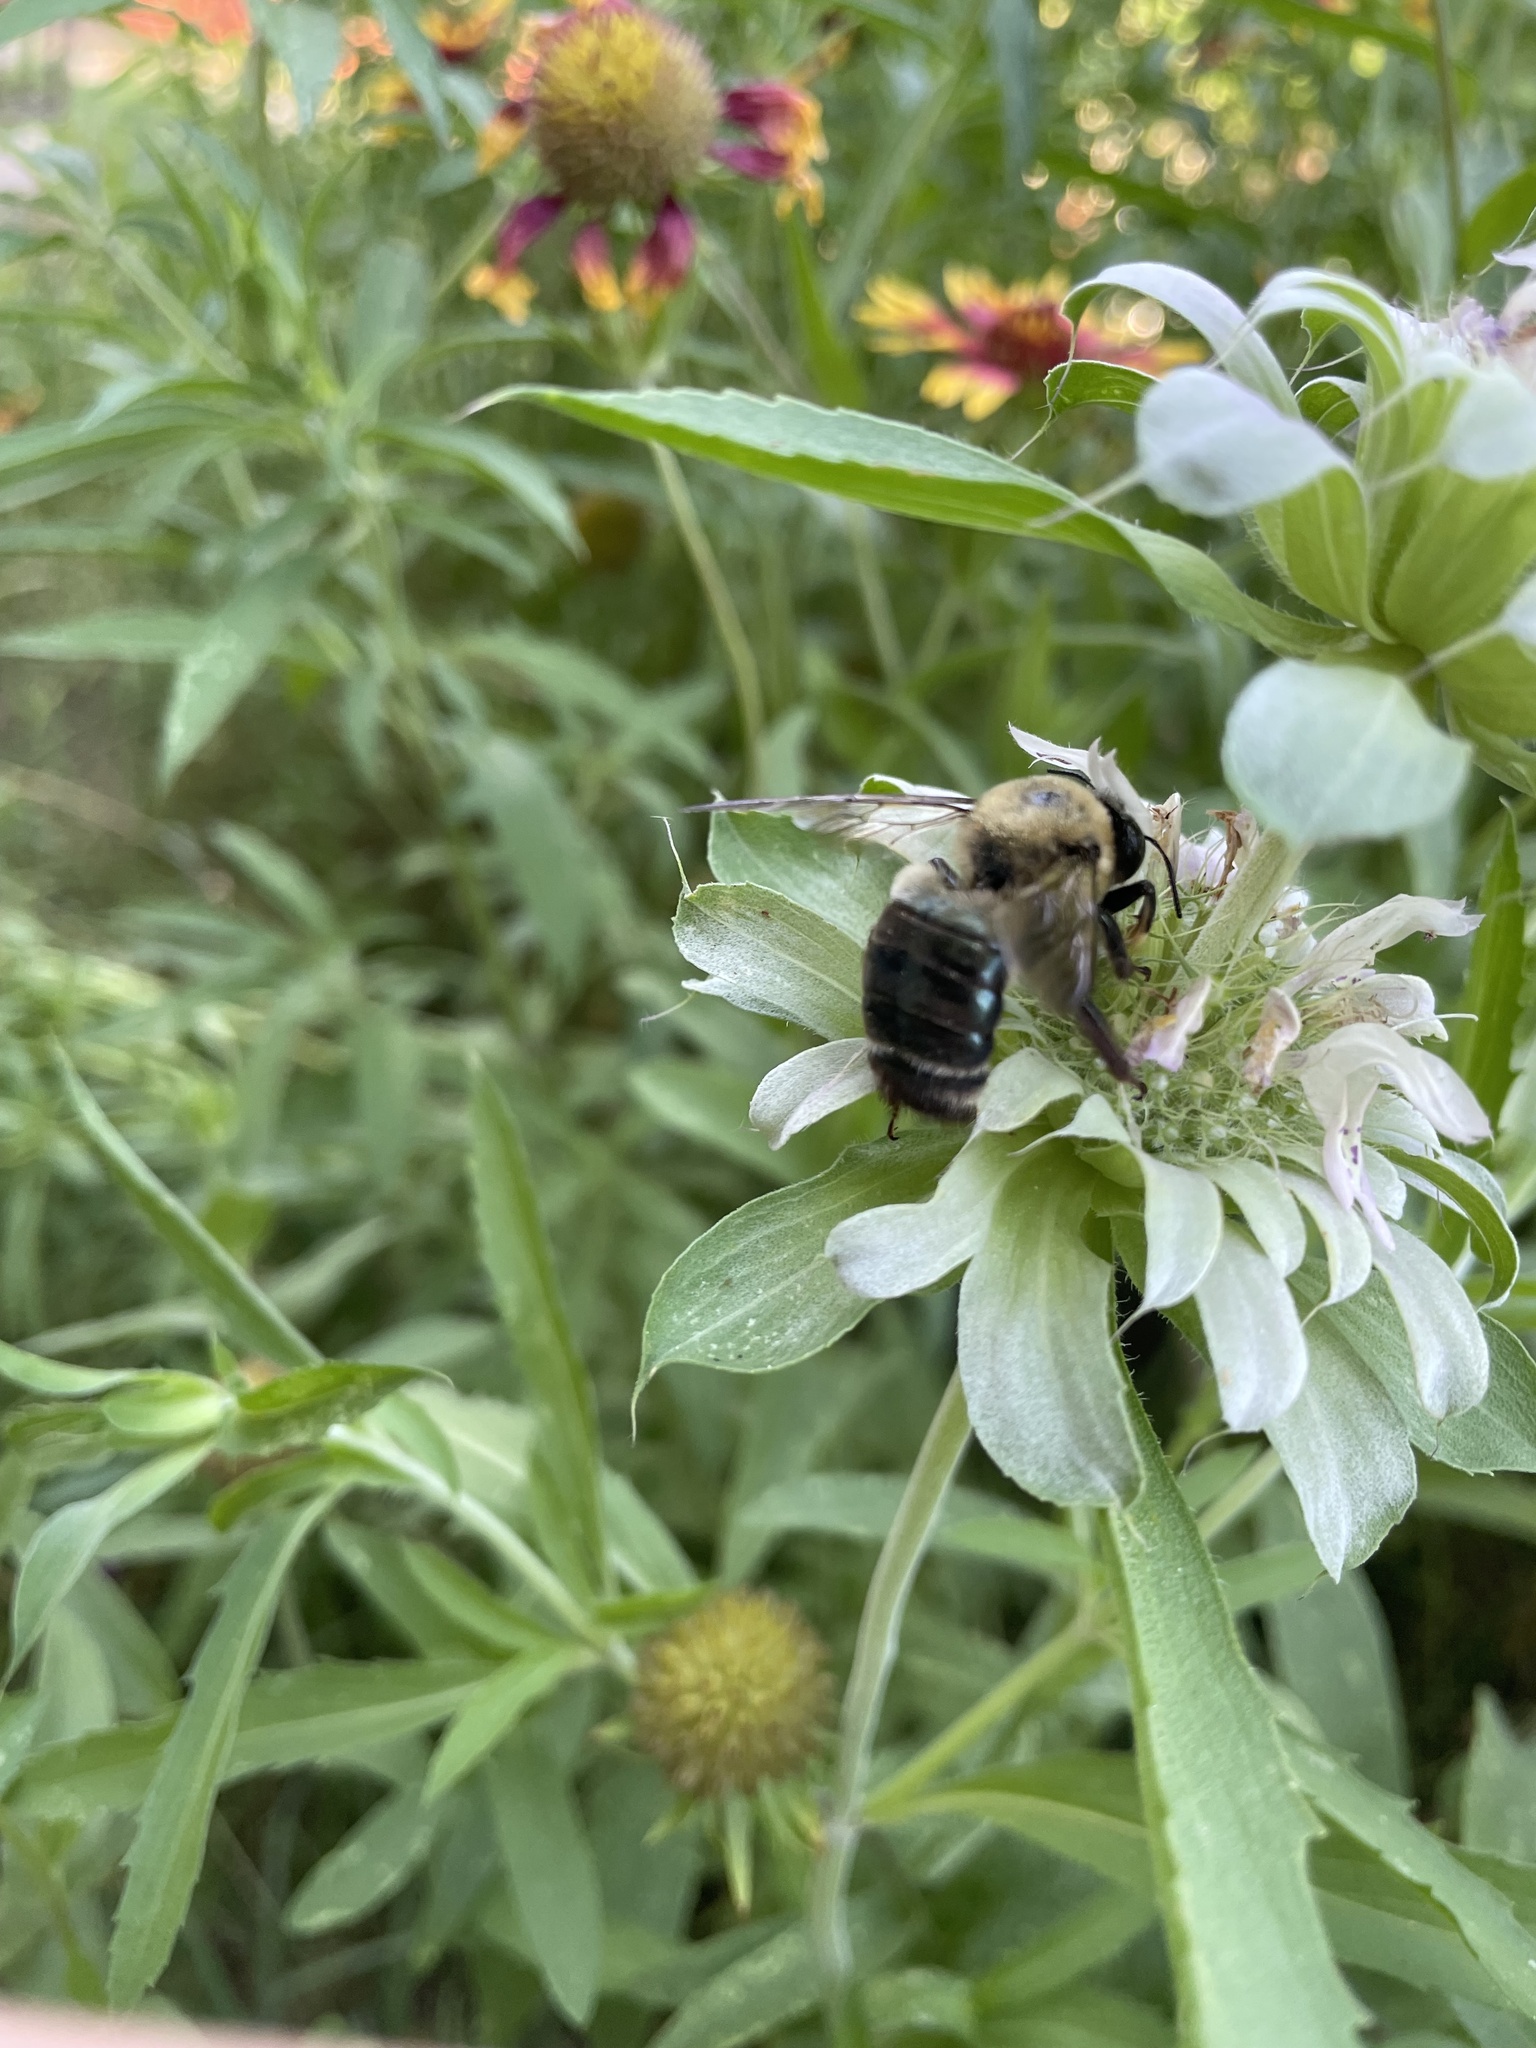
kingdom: Animalia
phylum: Arthropoda
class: Insecta
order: Hymenoptera
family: Apidae
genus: Xylocopa
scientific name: Xylocopa virginica
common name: Carpenter bee
